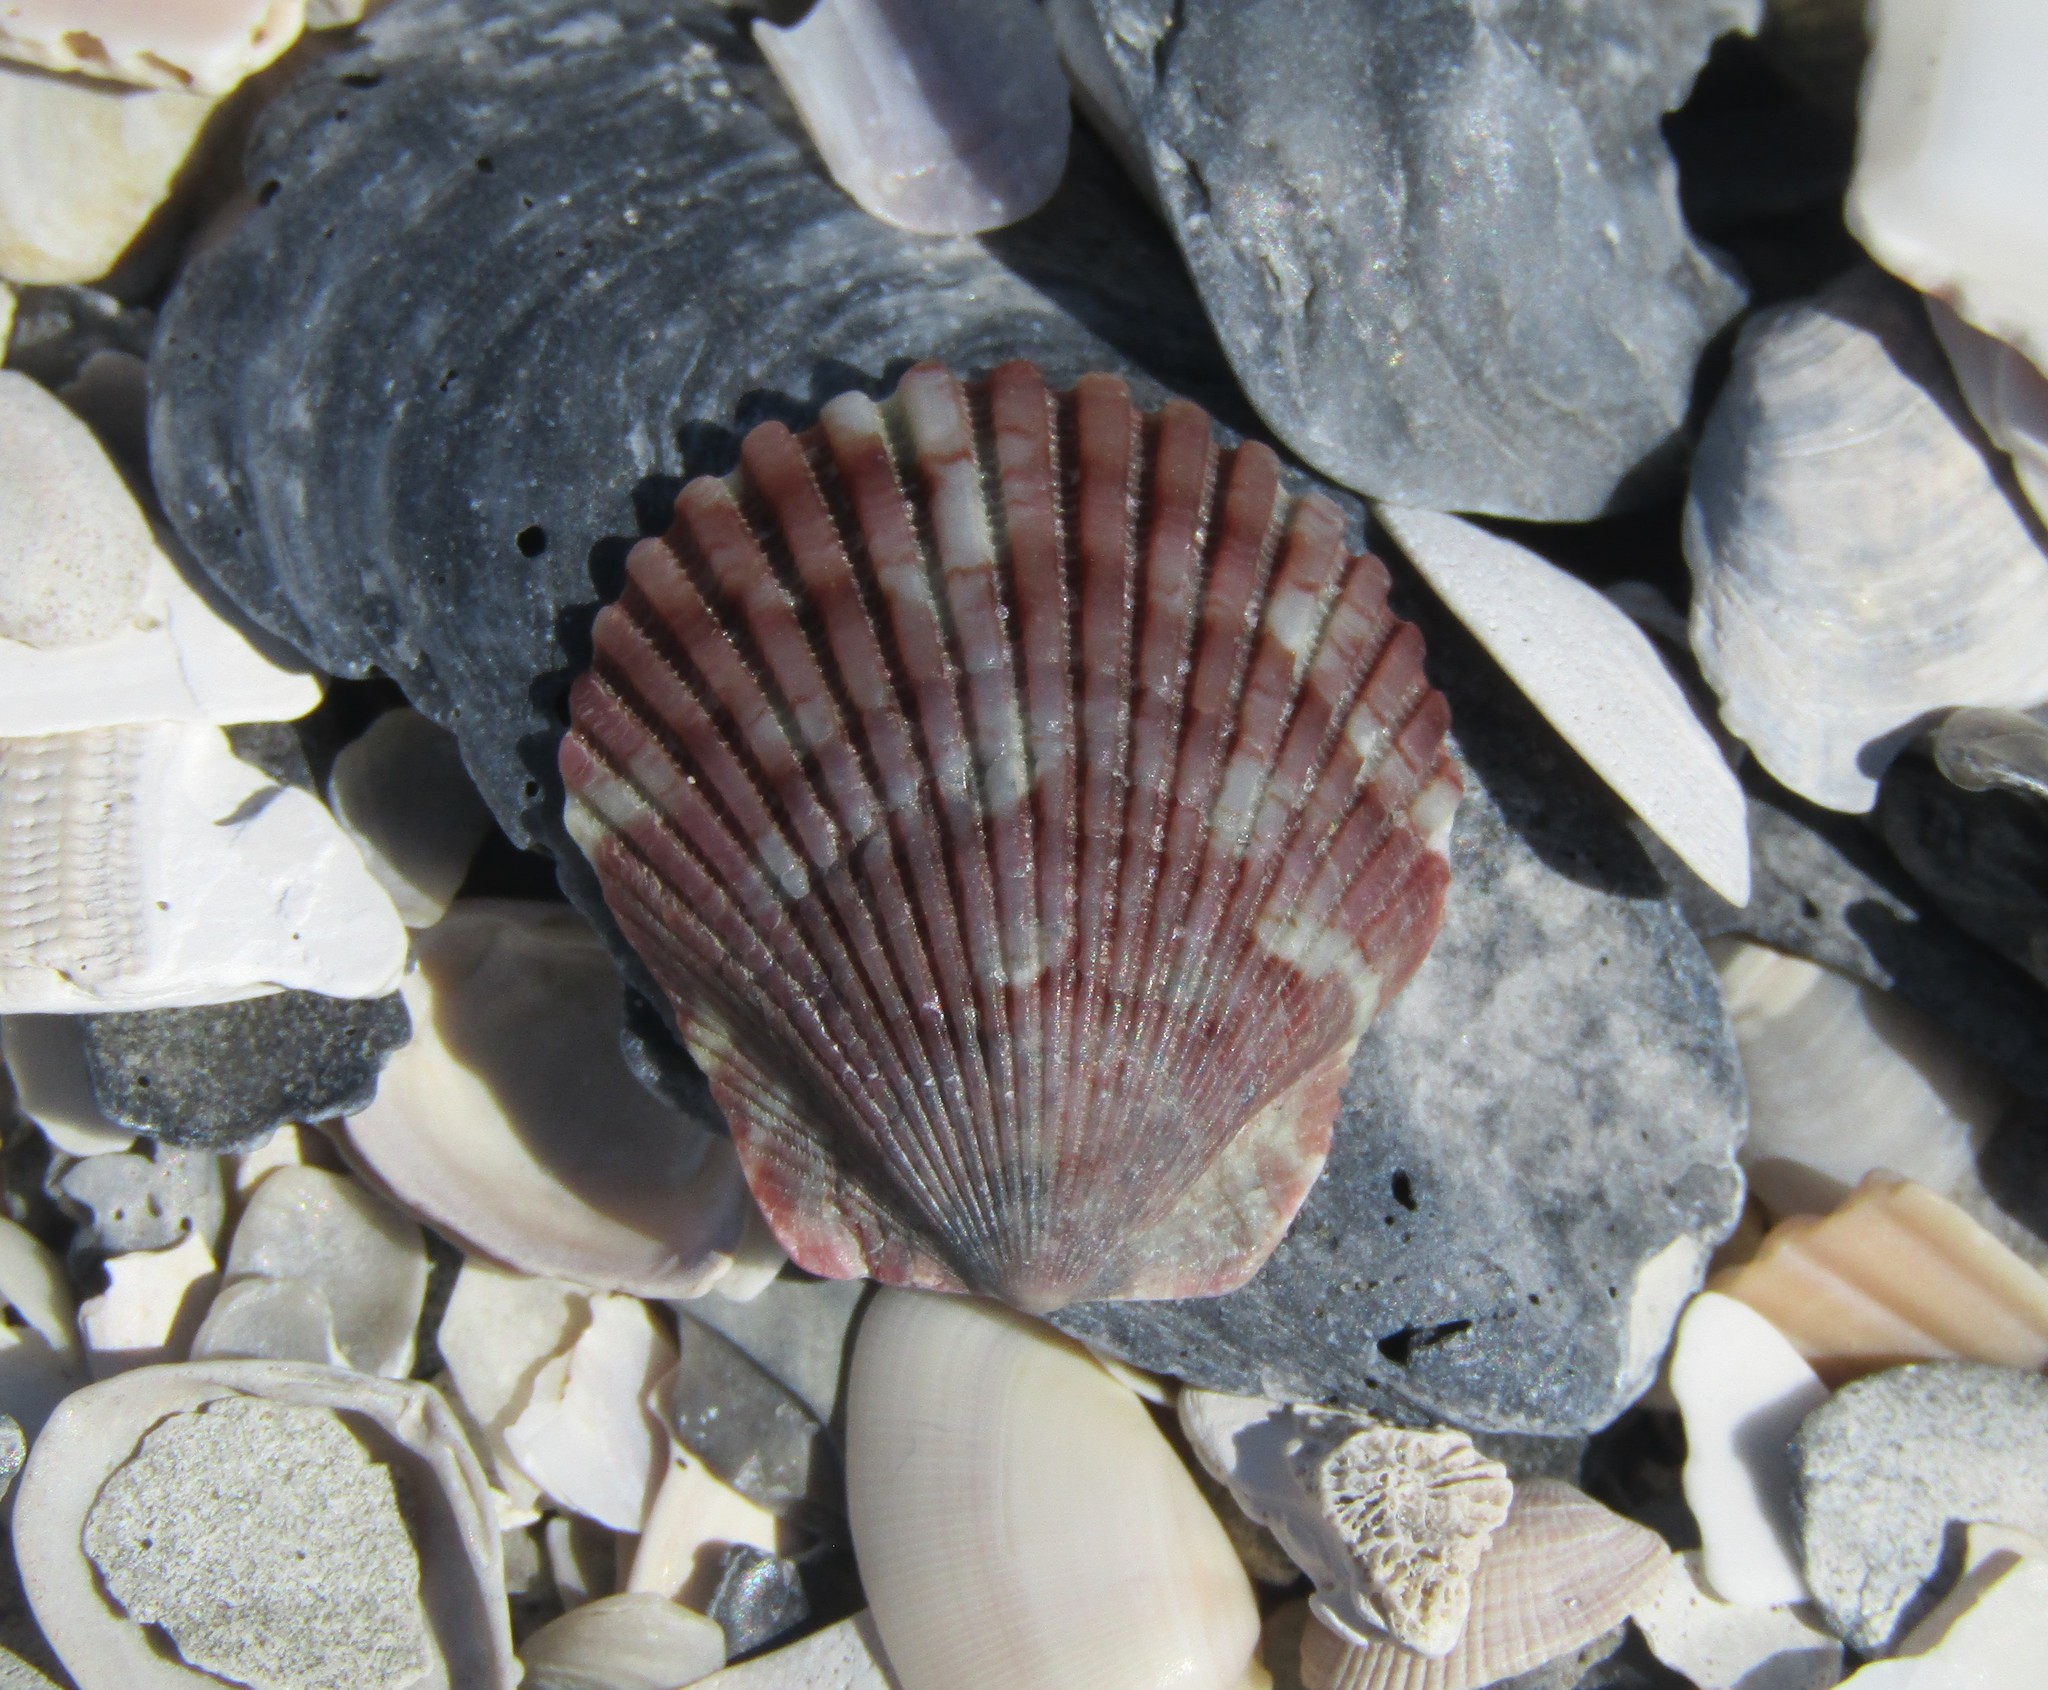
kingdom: Animalia
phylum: Mollusca
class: Bivalvia
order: Pectinida
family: Pectinidae
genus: Argopecten
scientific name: Argopecten gibbus
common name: Atlantic calico scallop
